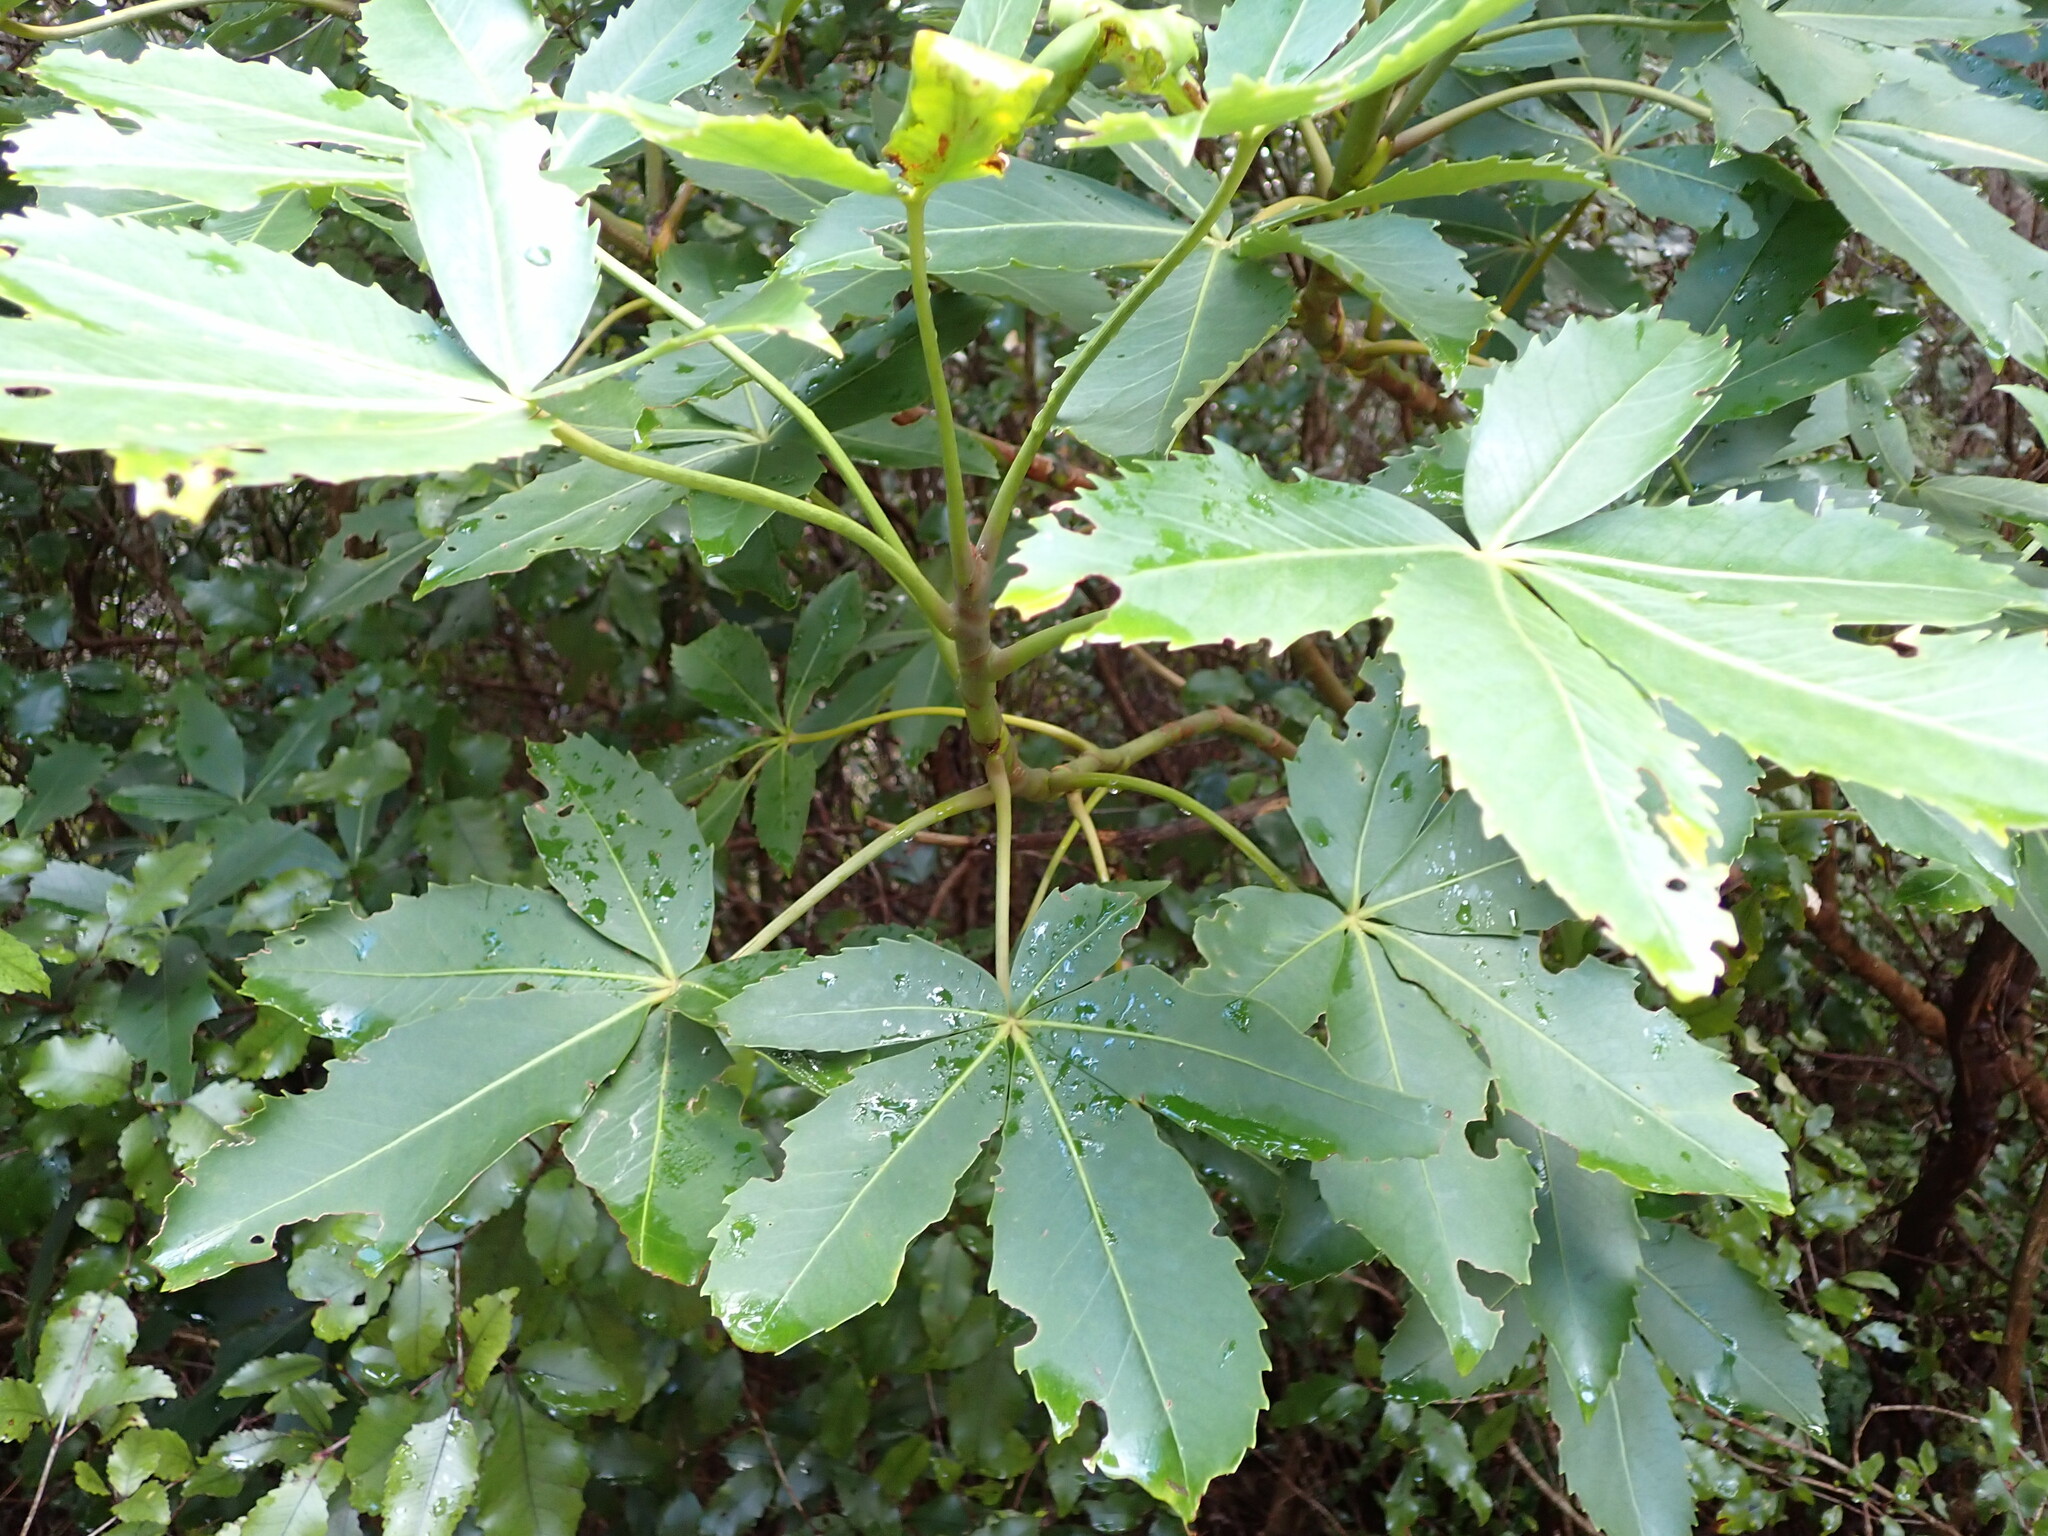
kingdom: Plantae
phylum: Tracheophyta
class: Magnoliopsida
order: Apiales
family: Araliaceae
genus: Neopanax
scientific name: Neopanax colensoi
